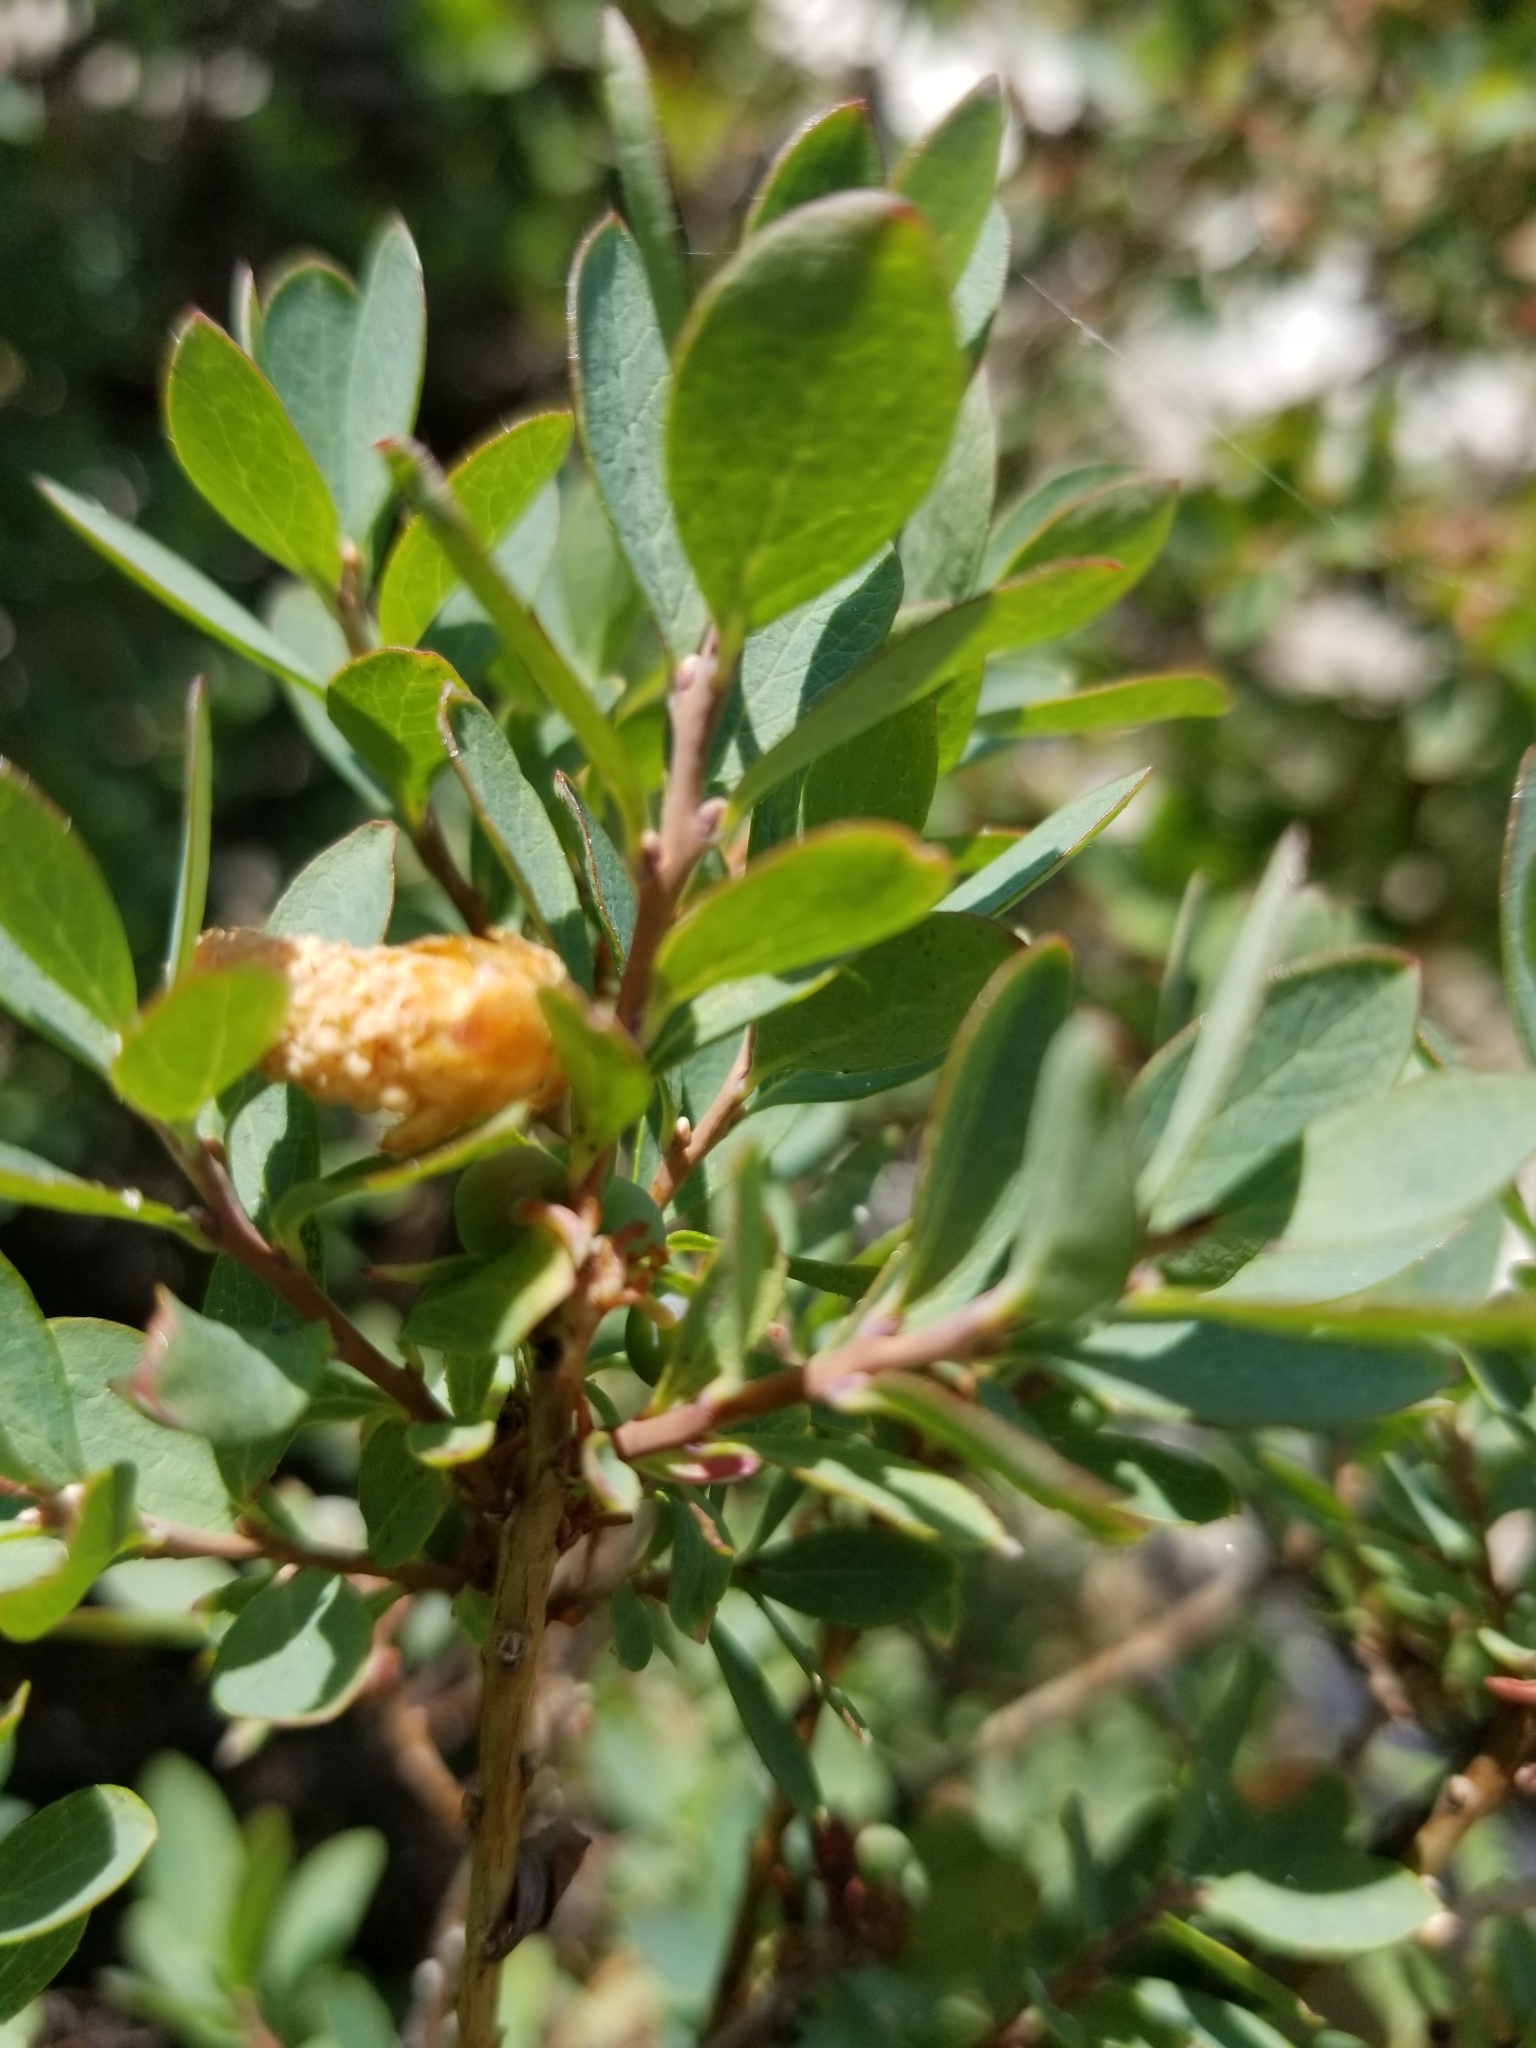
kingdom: Plantae
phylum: Tracheophyta
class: Magnoliopsida
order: Ericales
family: Ericaceae
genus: Vaccinium
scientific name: Vaccinium uliginosum
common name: Bog bilberry
